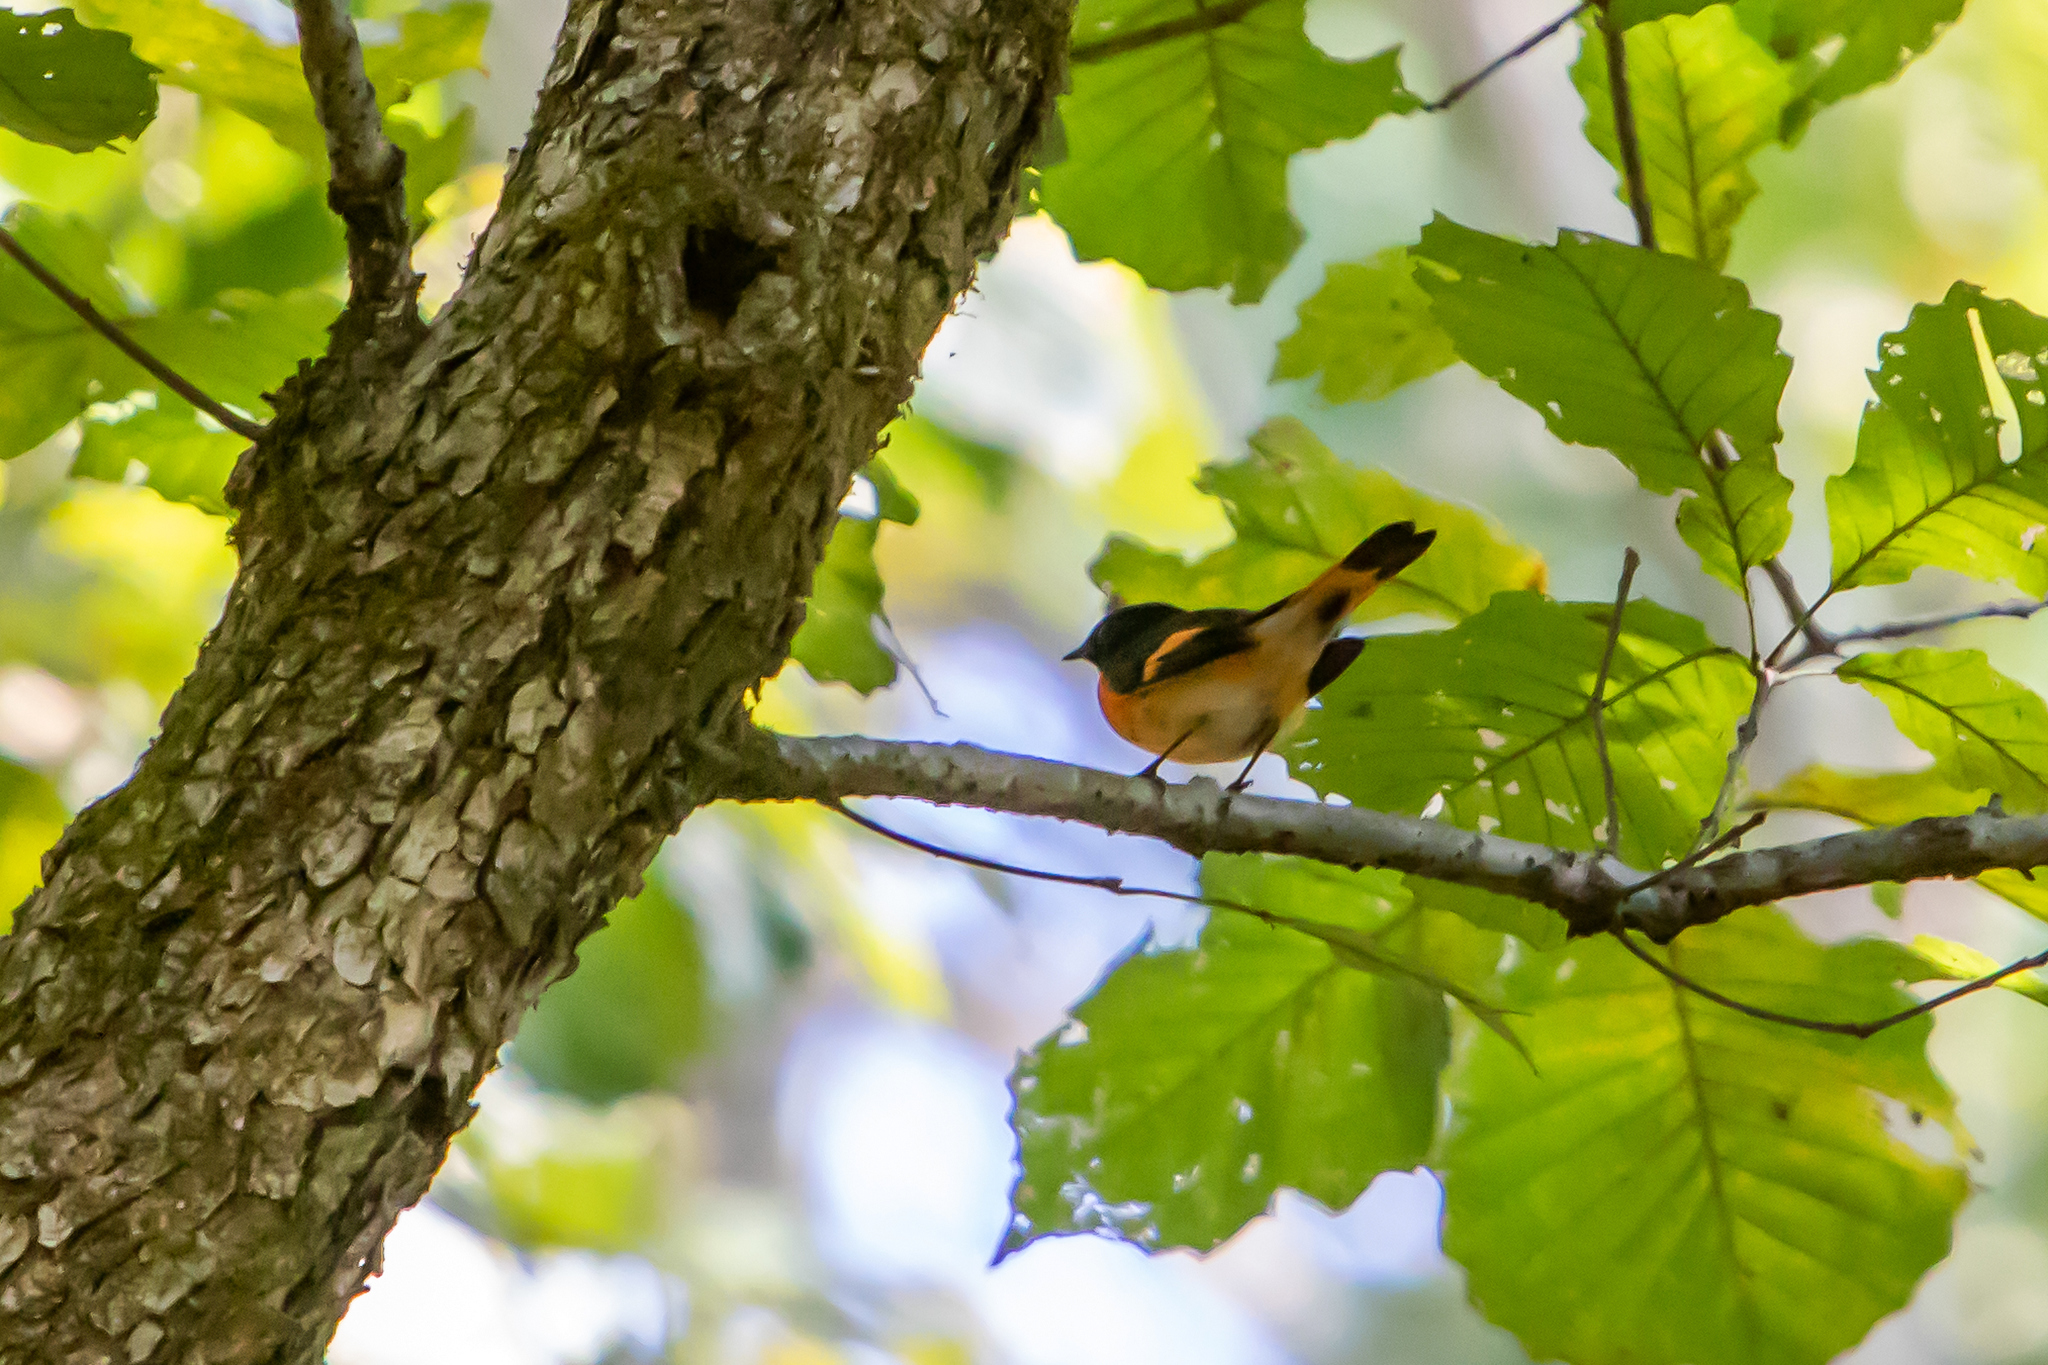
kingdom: Animalia
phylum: Chordata
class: Aves
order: Passeriformes
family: Parulidae
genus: Setophaga
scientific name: Setophaga ruticilla
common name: American redstart
